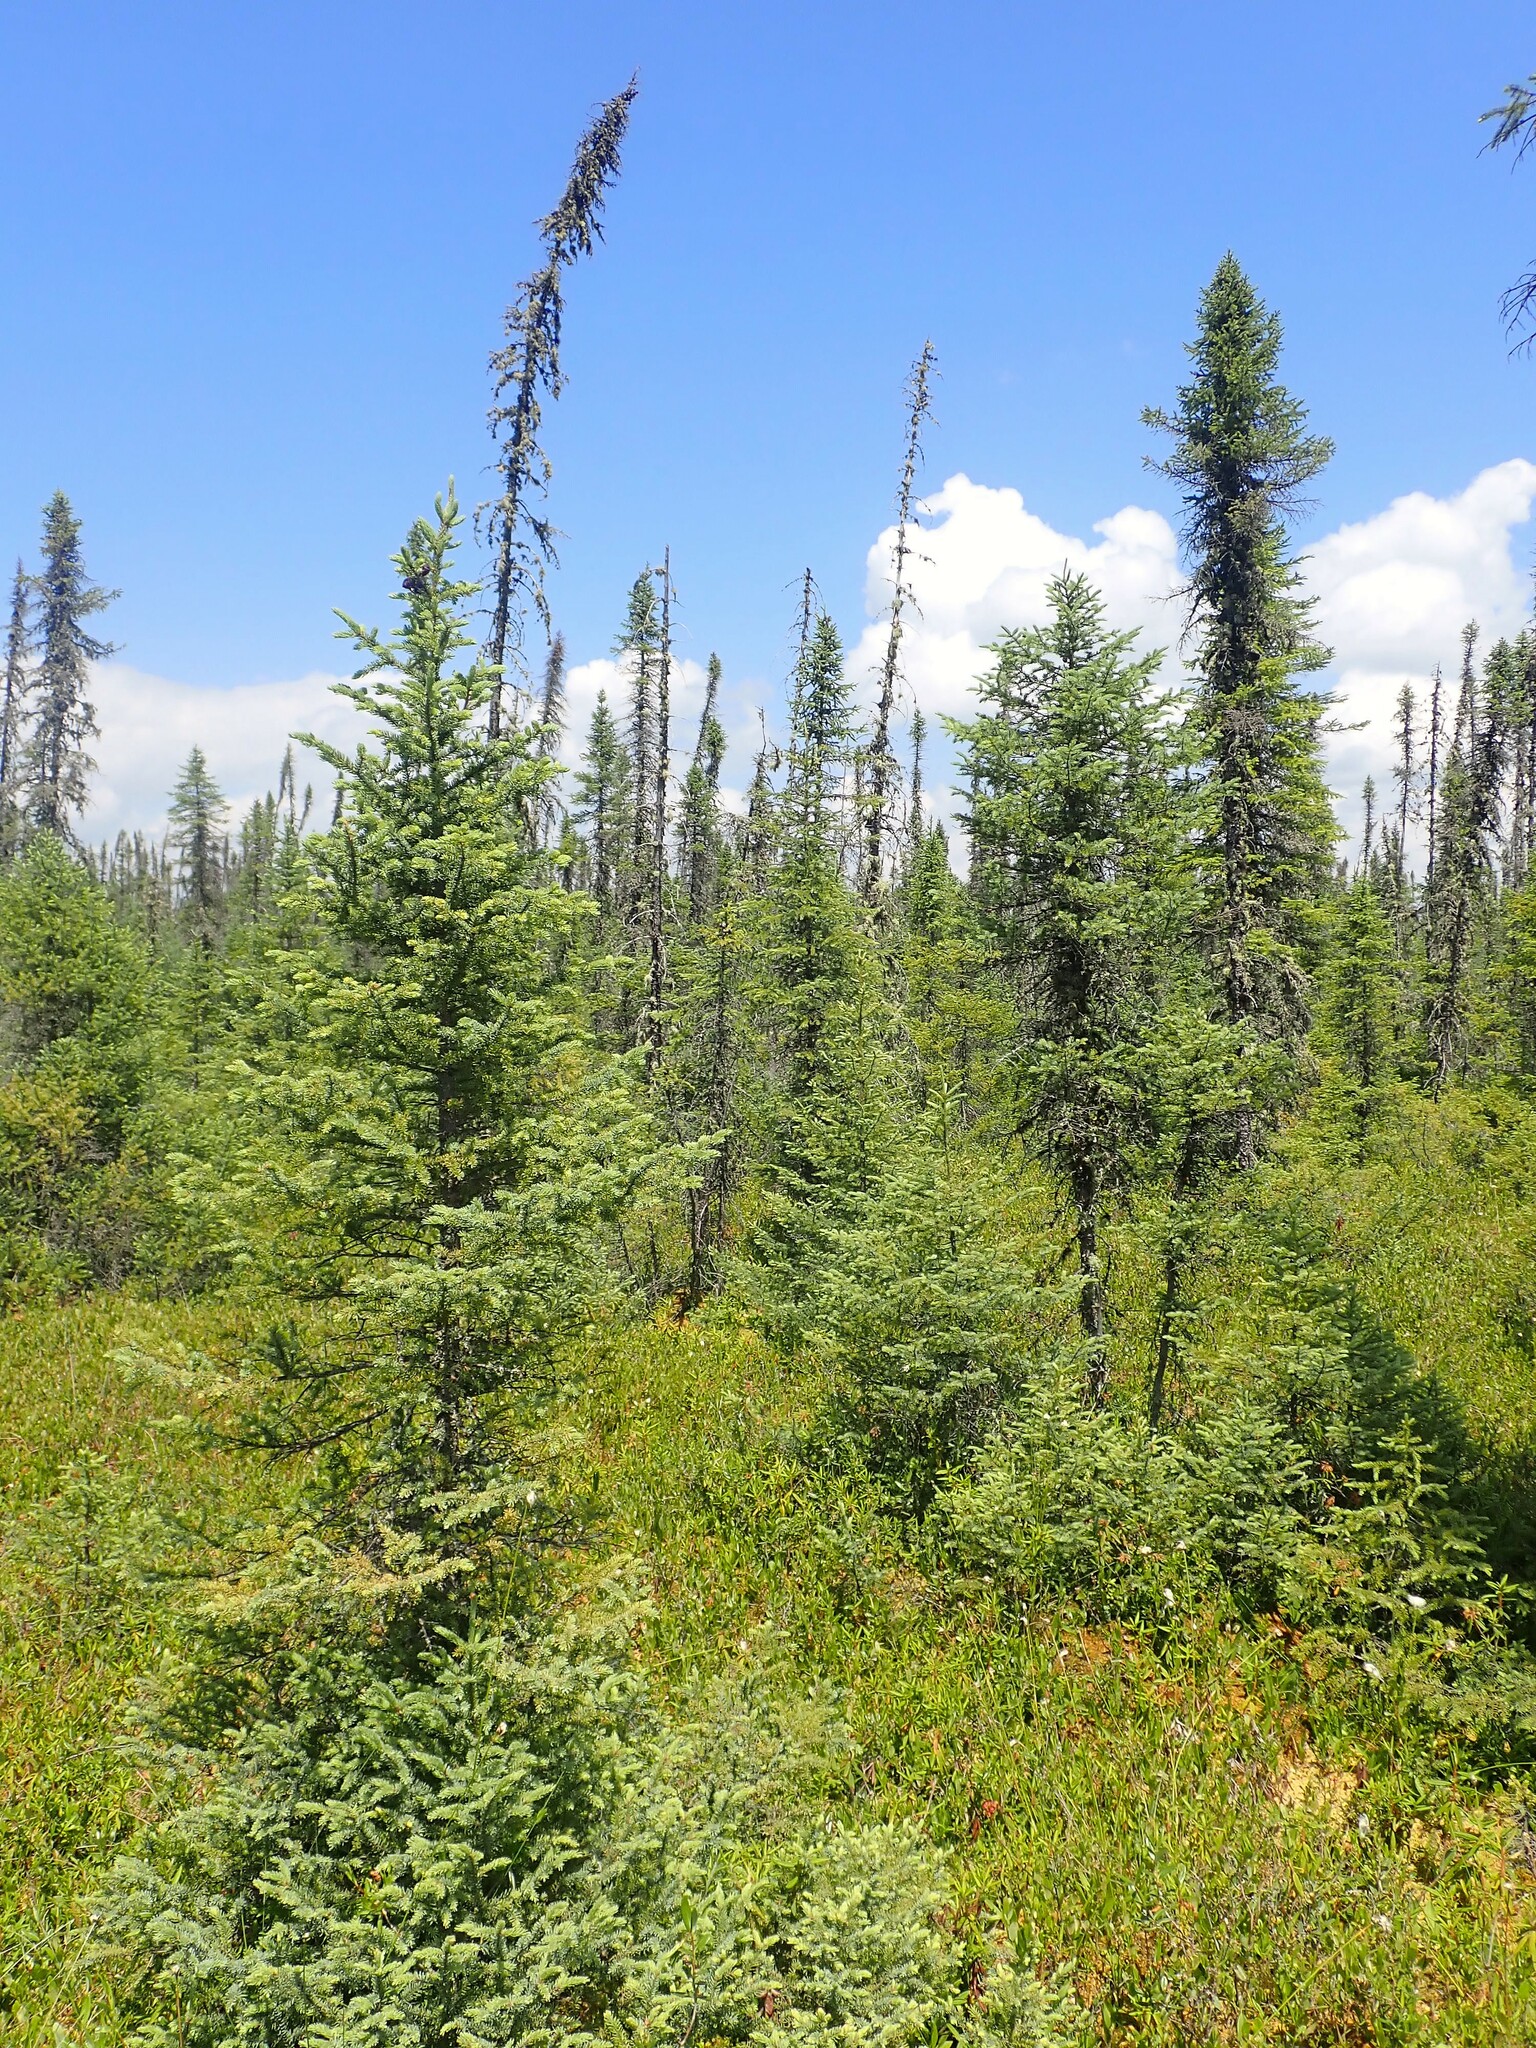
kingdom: Plantae
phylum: Tracheophyta
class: Pinopsida
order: Pinales
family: Pinaceae
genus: Picea
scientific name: Picea mariana
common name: Black spruce
